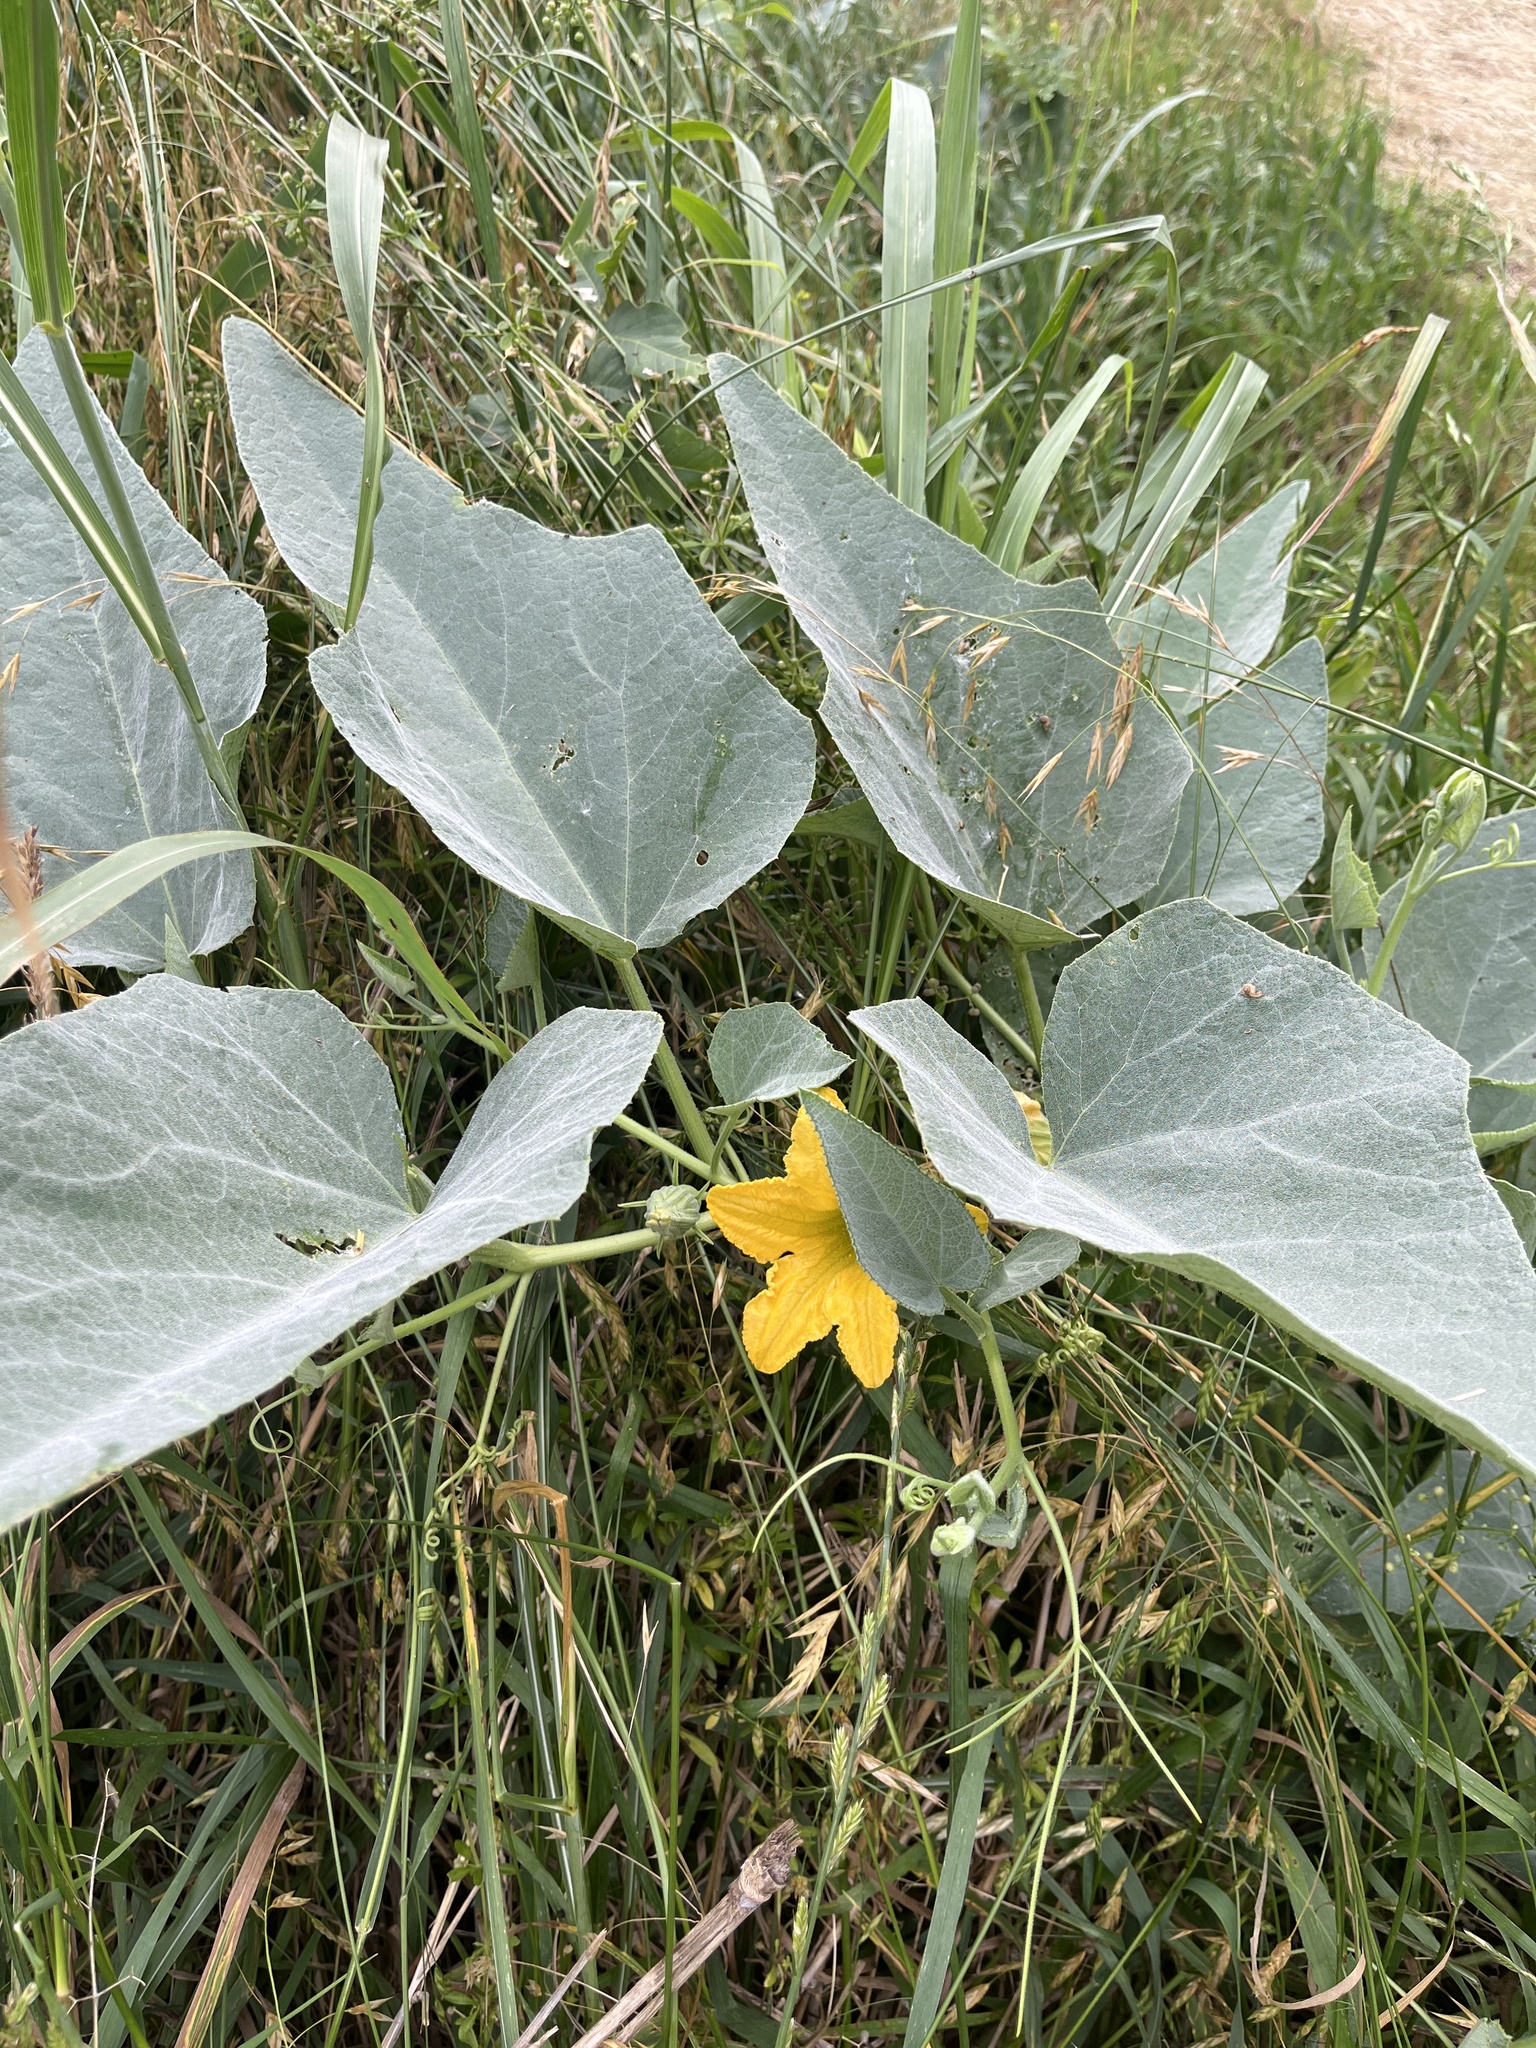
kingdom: Plantae
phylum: Tracheophyta
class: Magnoliopsida
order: Cucurbitales
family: Cucurbitaceae
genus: Cucurbita
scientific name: Cucurbita foetidissima
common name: Buffalo gourd
